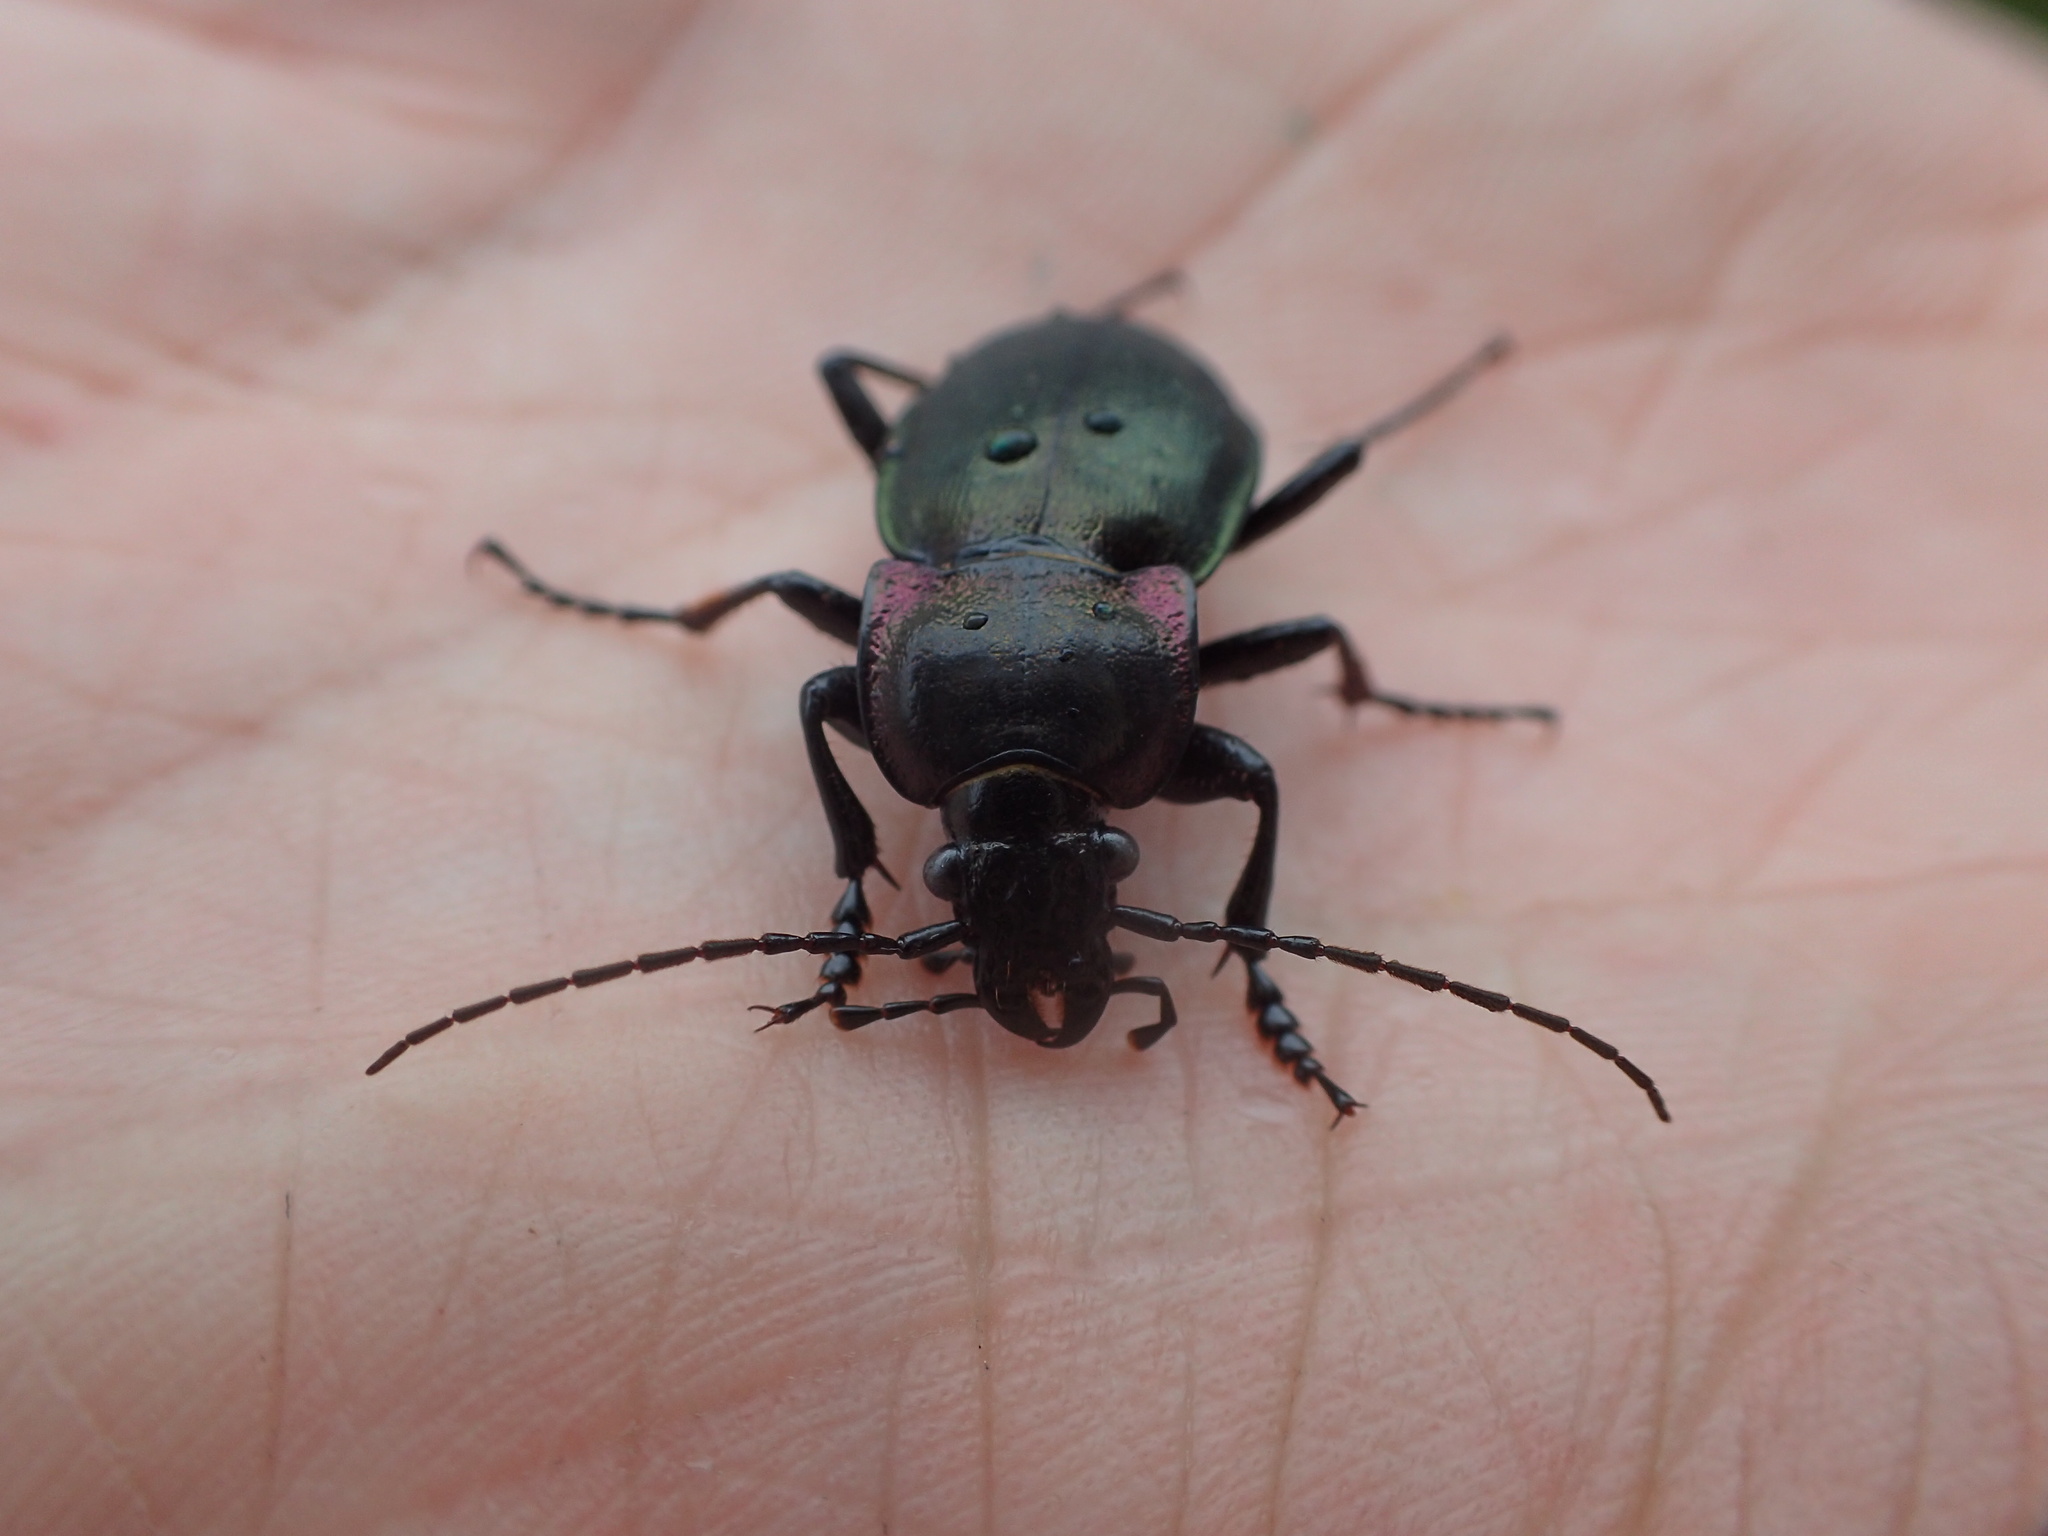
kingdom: Animalia
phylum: Arthropoda
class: Insecta
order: Coleoptera
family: Carabidae
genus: Carabus
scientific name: Carabus nemoralis
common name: European ground beetle
